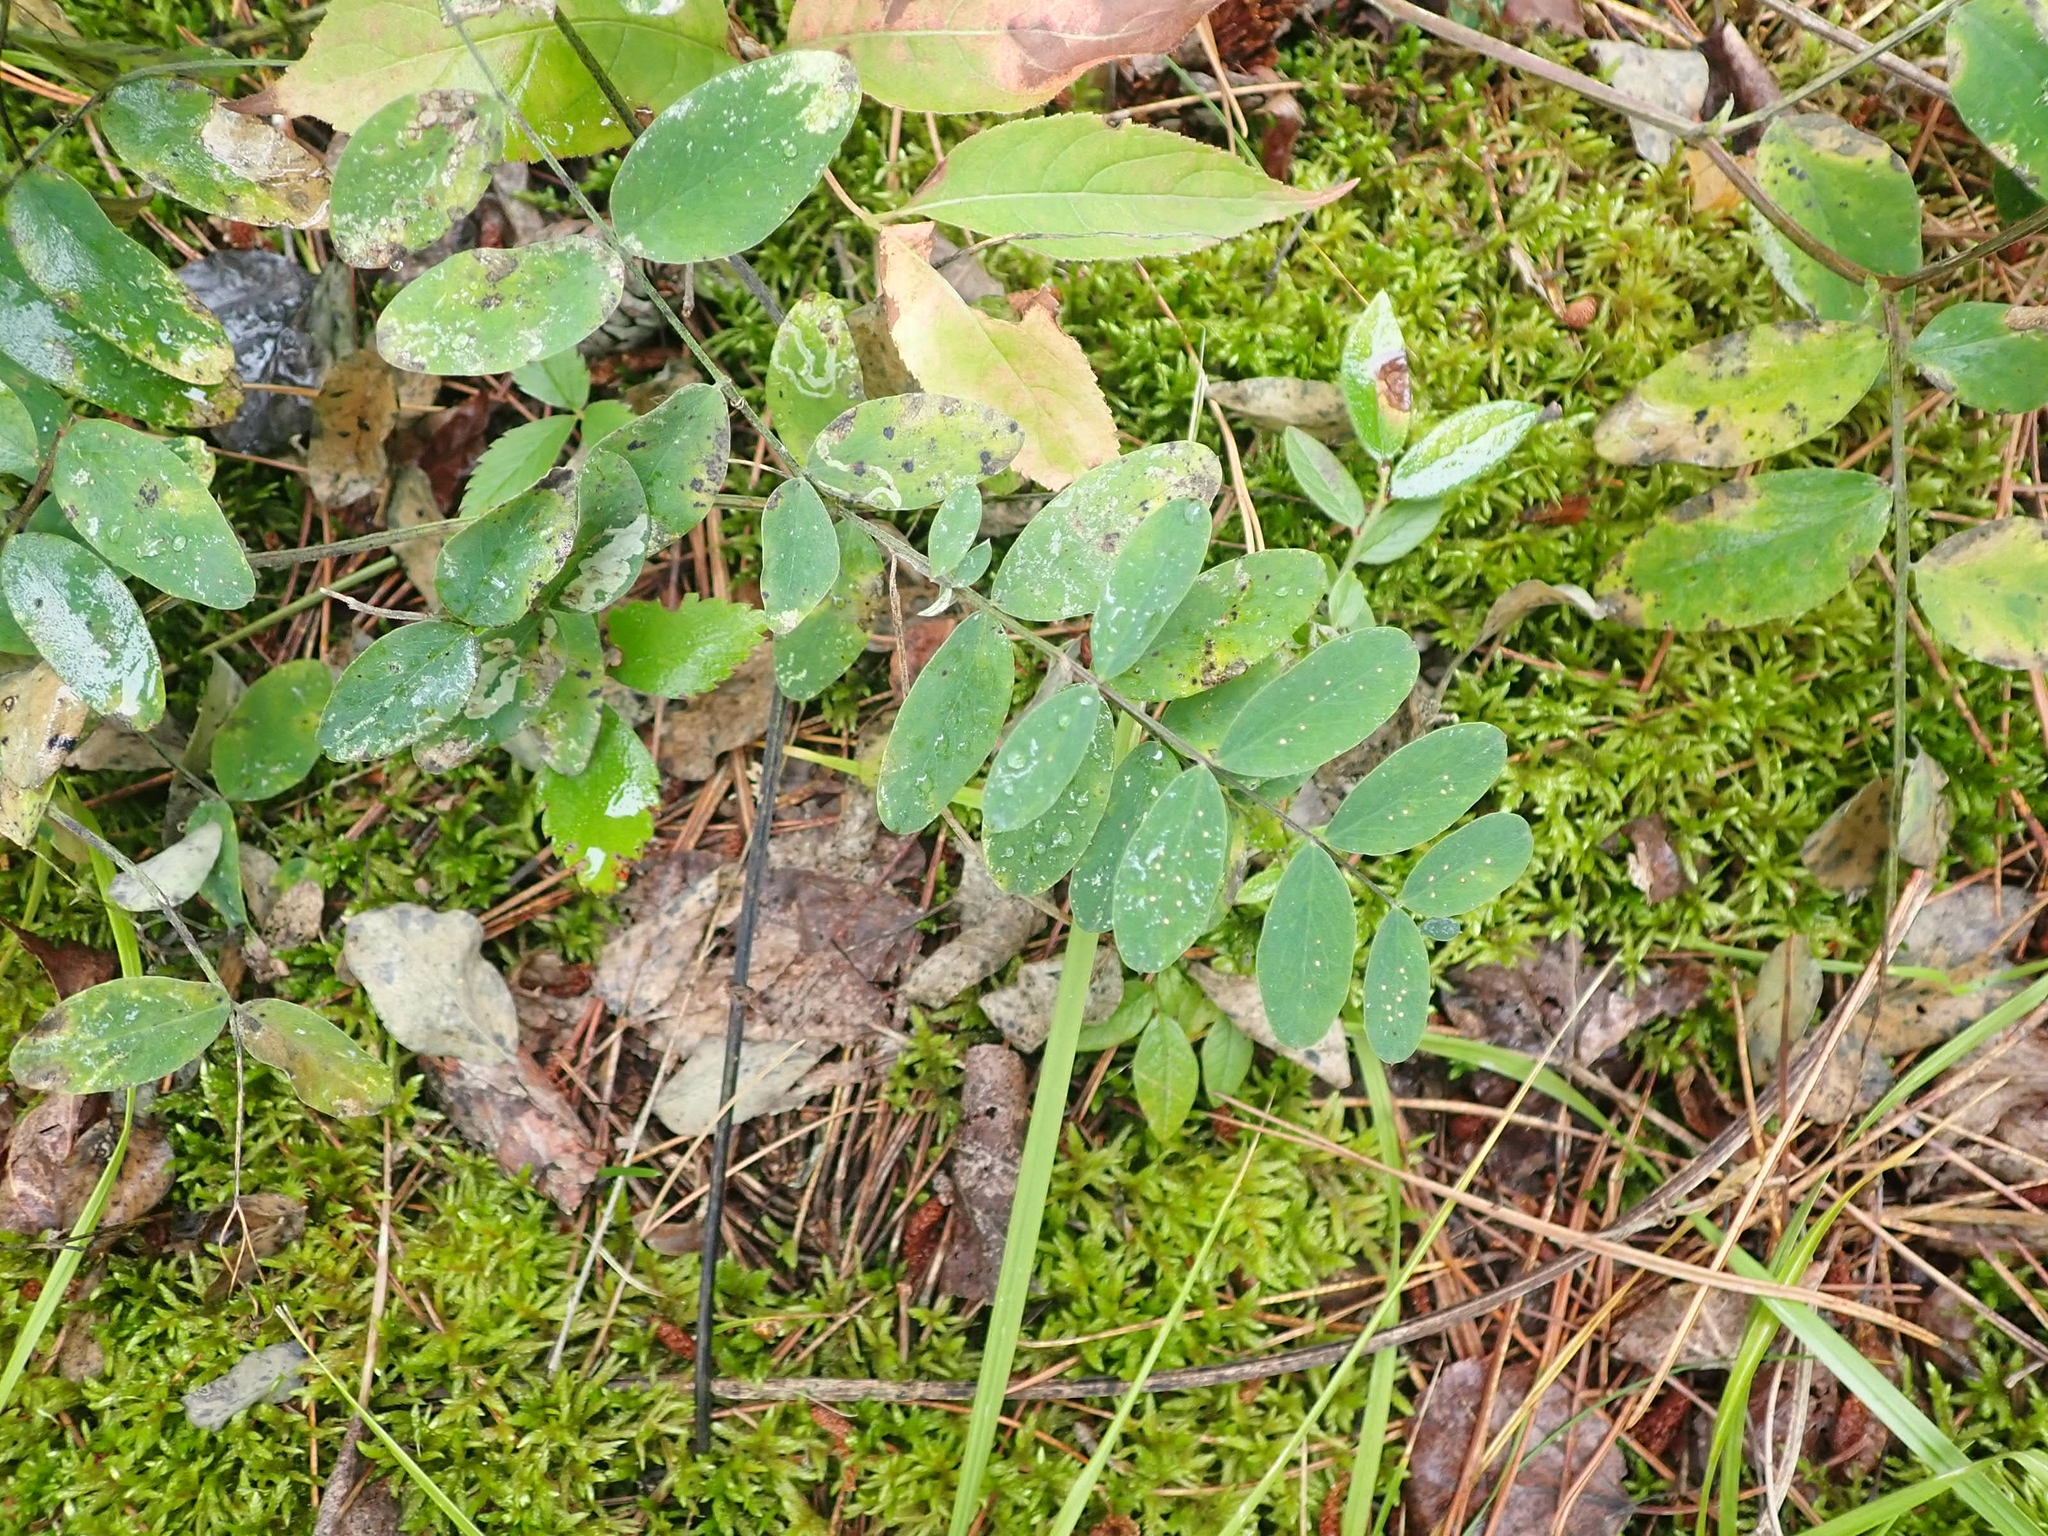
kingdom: Plantae
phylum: Tracheophyta
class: Magnoliopsida
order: Fabales
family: Fabaceae
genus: Lathyrus
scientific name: Lathyrus venosus
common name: Forest-pea
